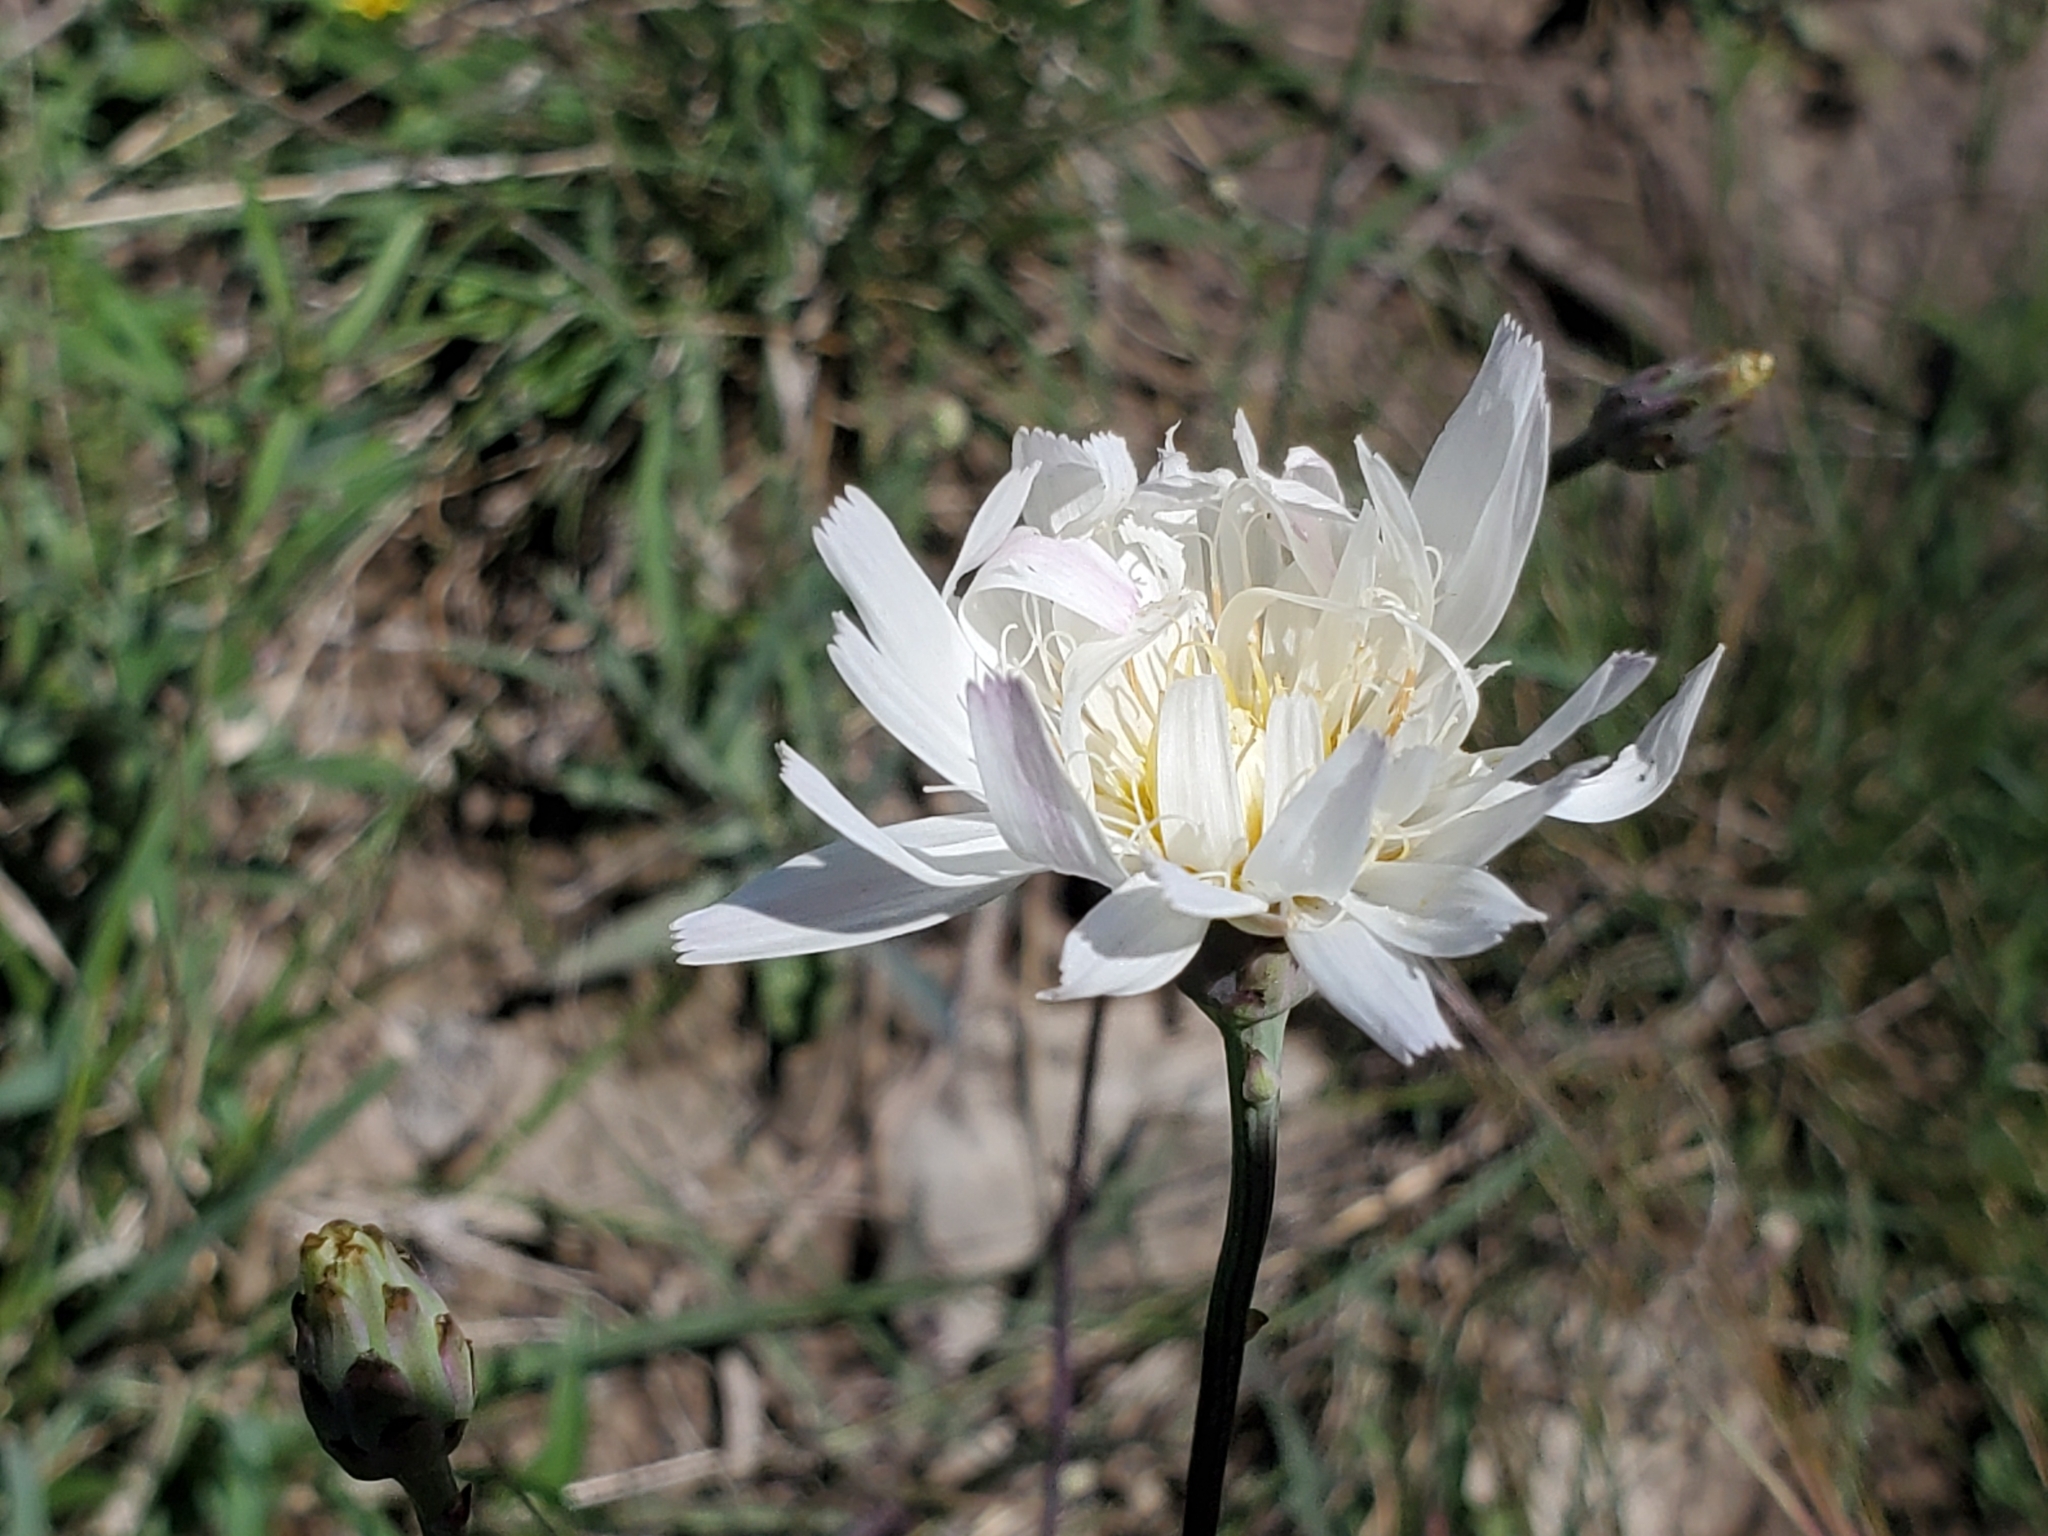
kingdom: Plantae
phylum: Tracheophyta
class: Magnoliopsida
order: Asterales
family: Asteraceae
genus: Pinaropappus
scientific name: Pinaropappus roseus
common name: Rock-lettuce
